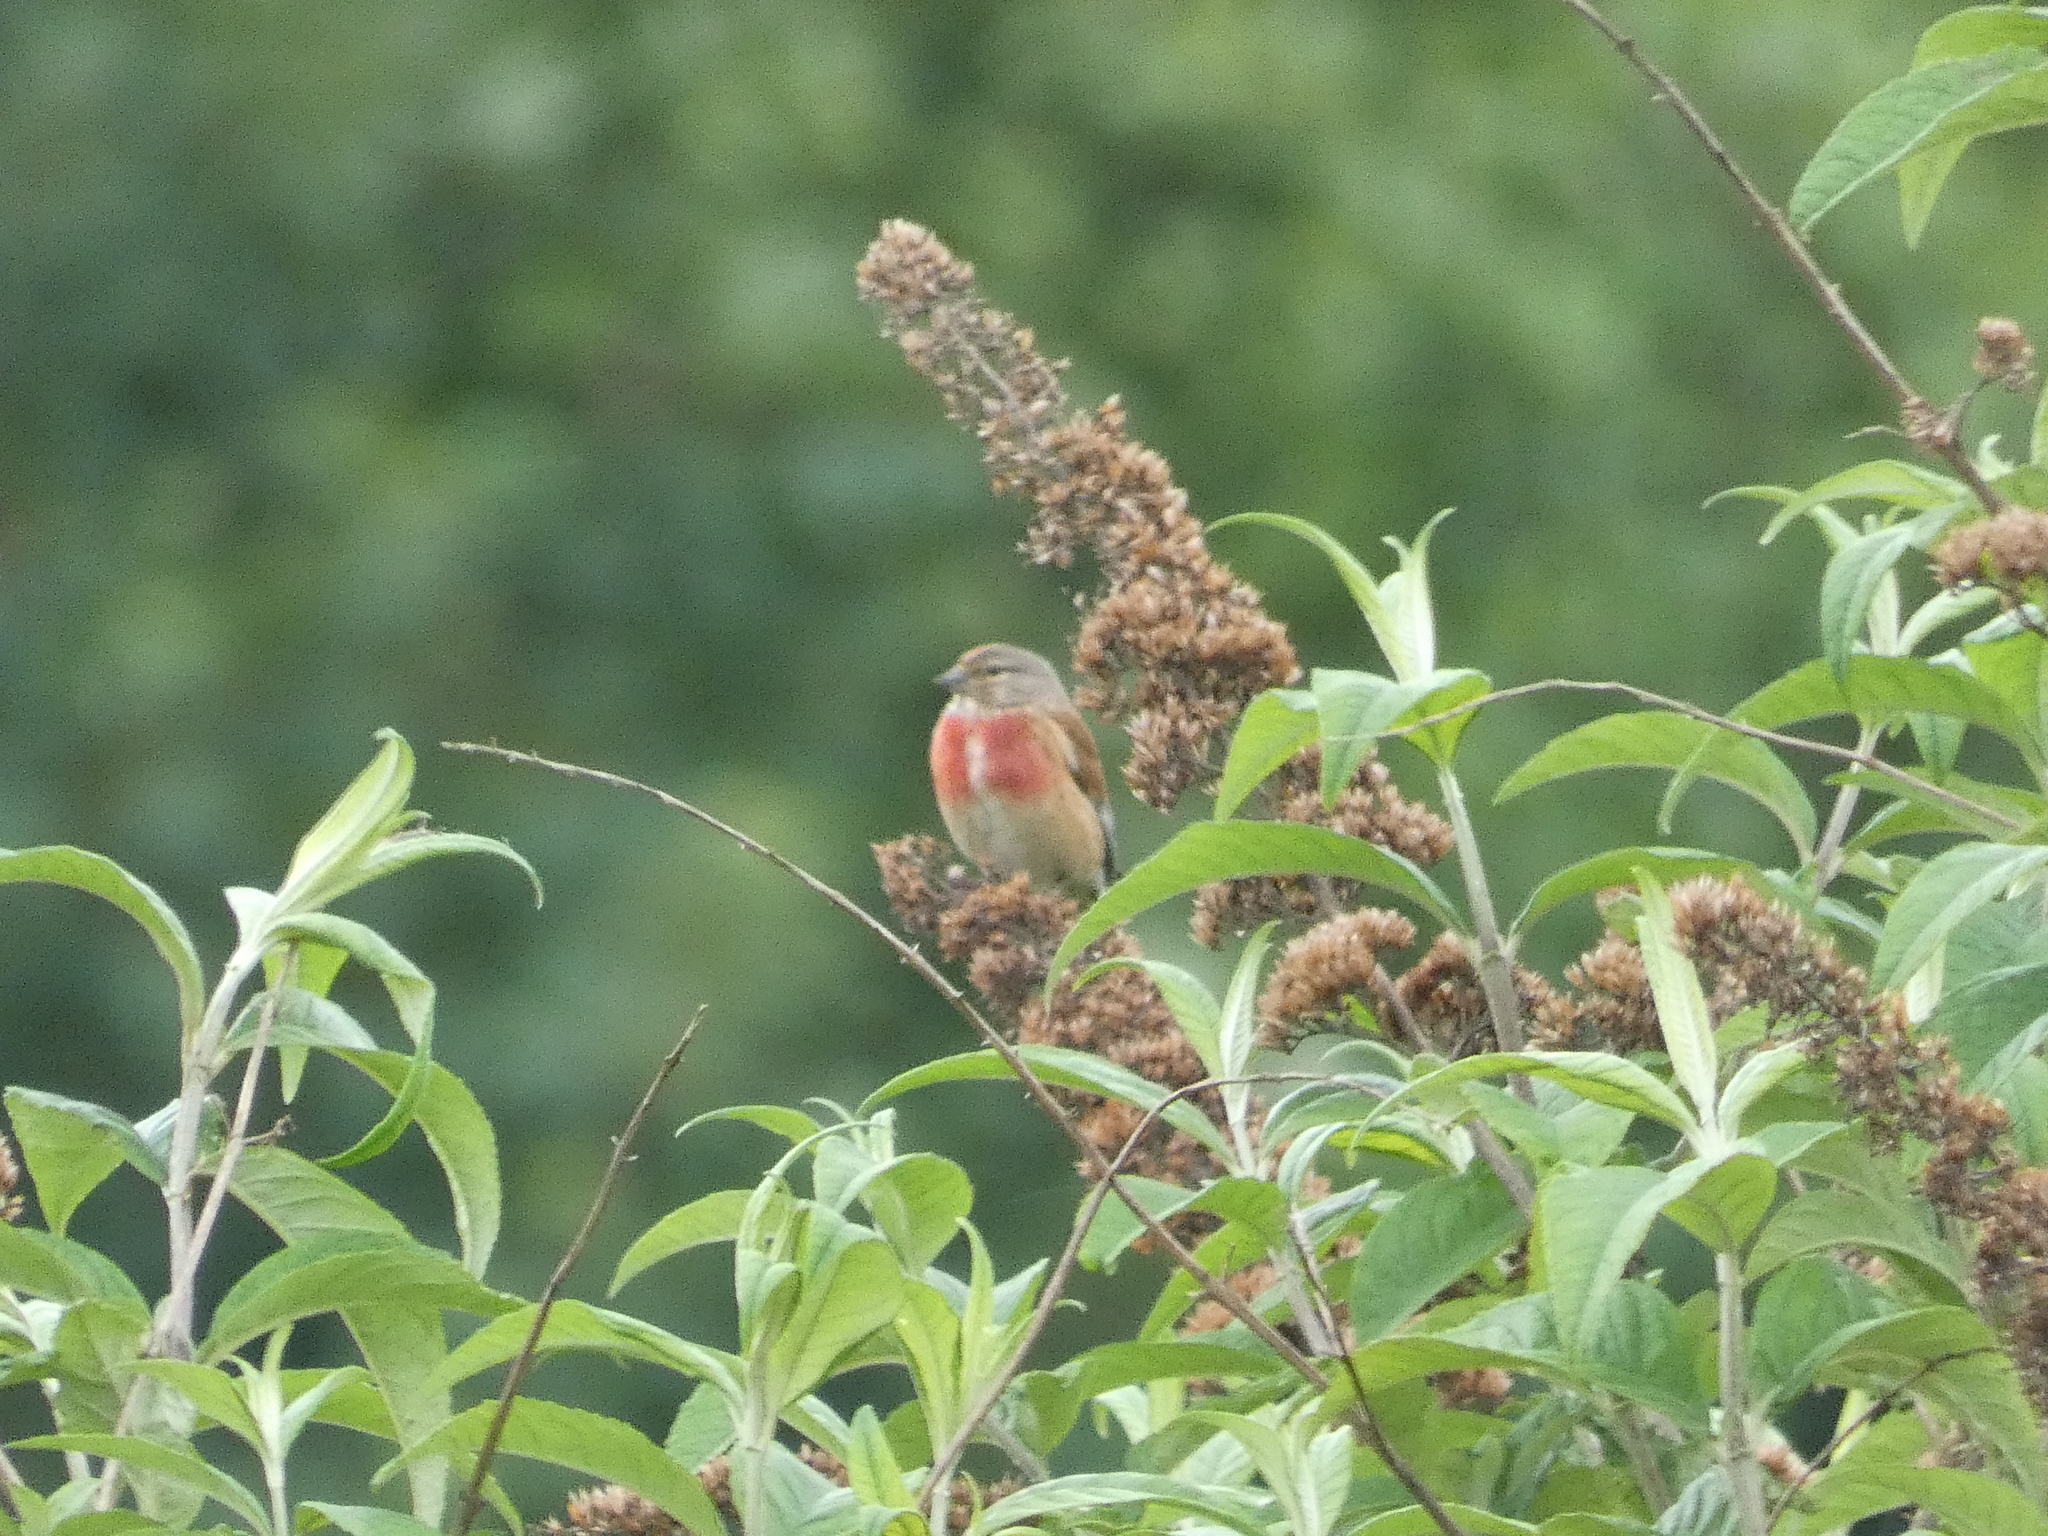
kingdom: Animalia
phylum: Chordata
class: Aves
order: Passeriformes
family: Fringillidae
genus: Linaria
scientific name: Linaria cannabina
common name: Common linnet
